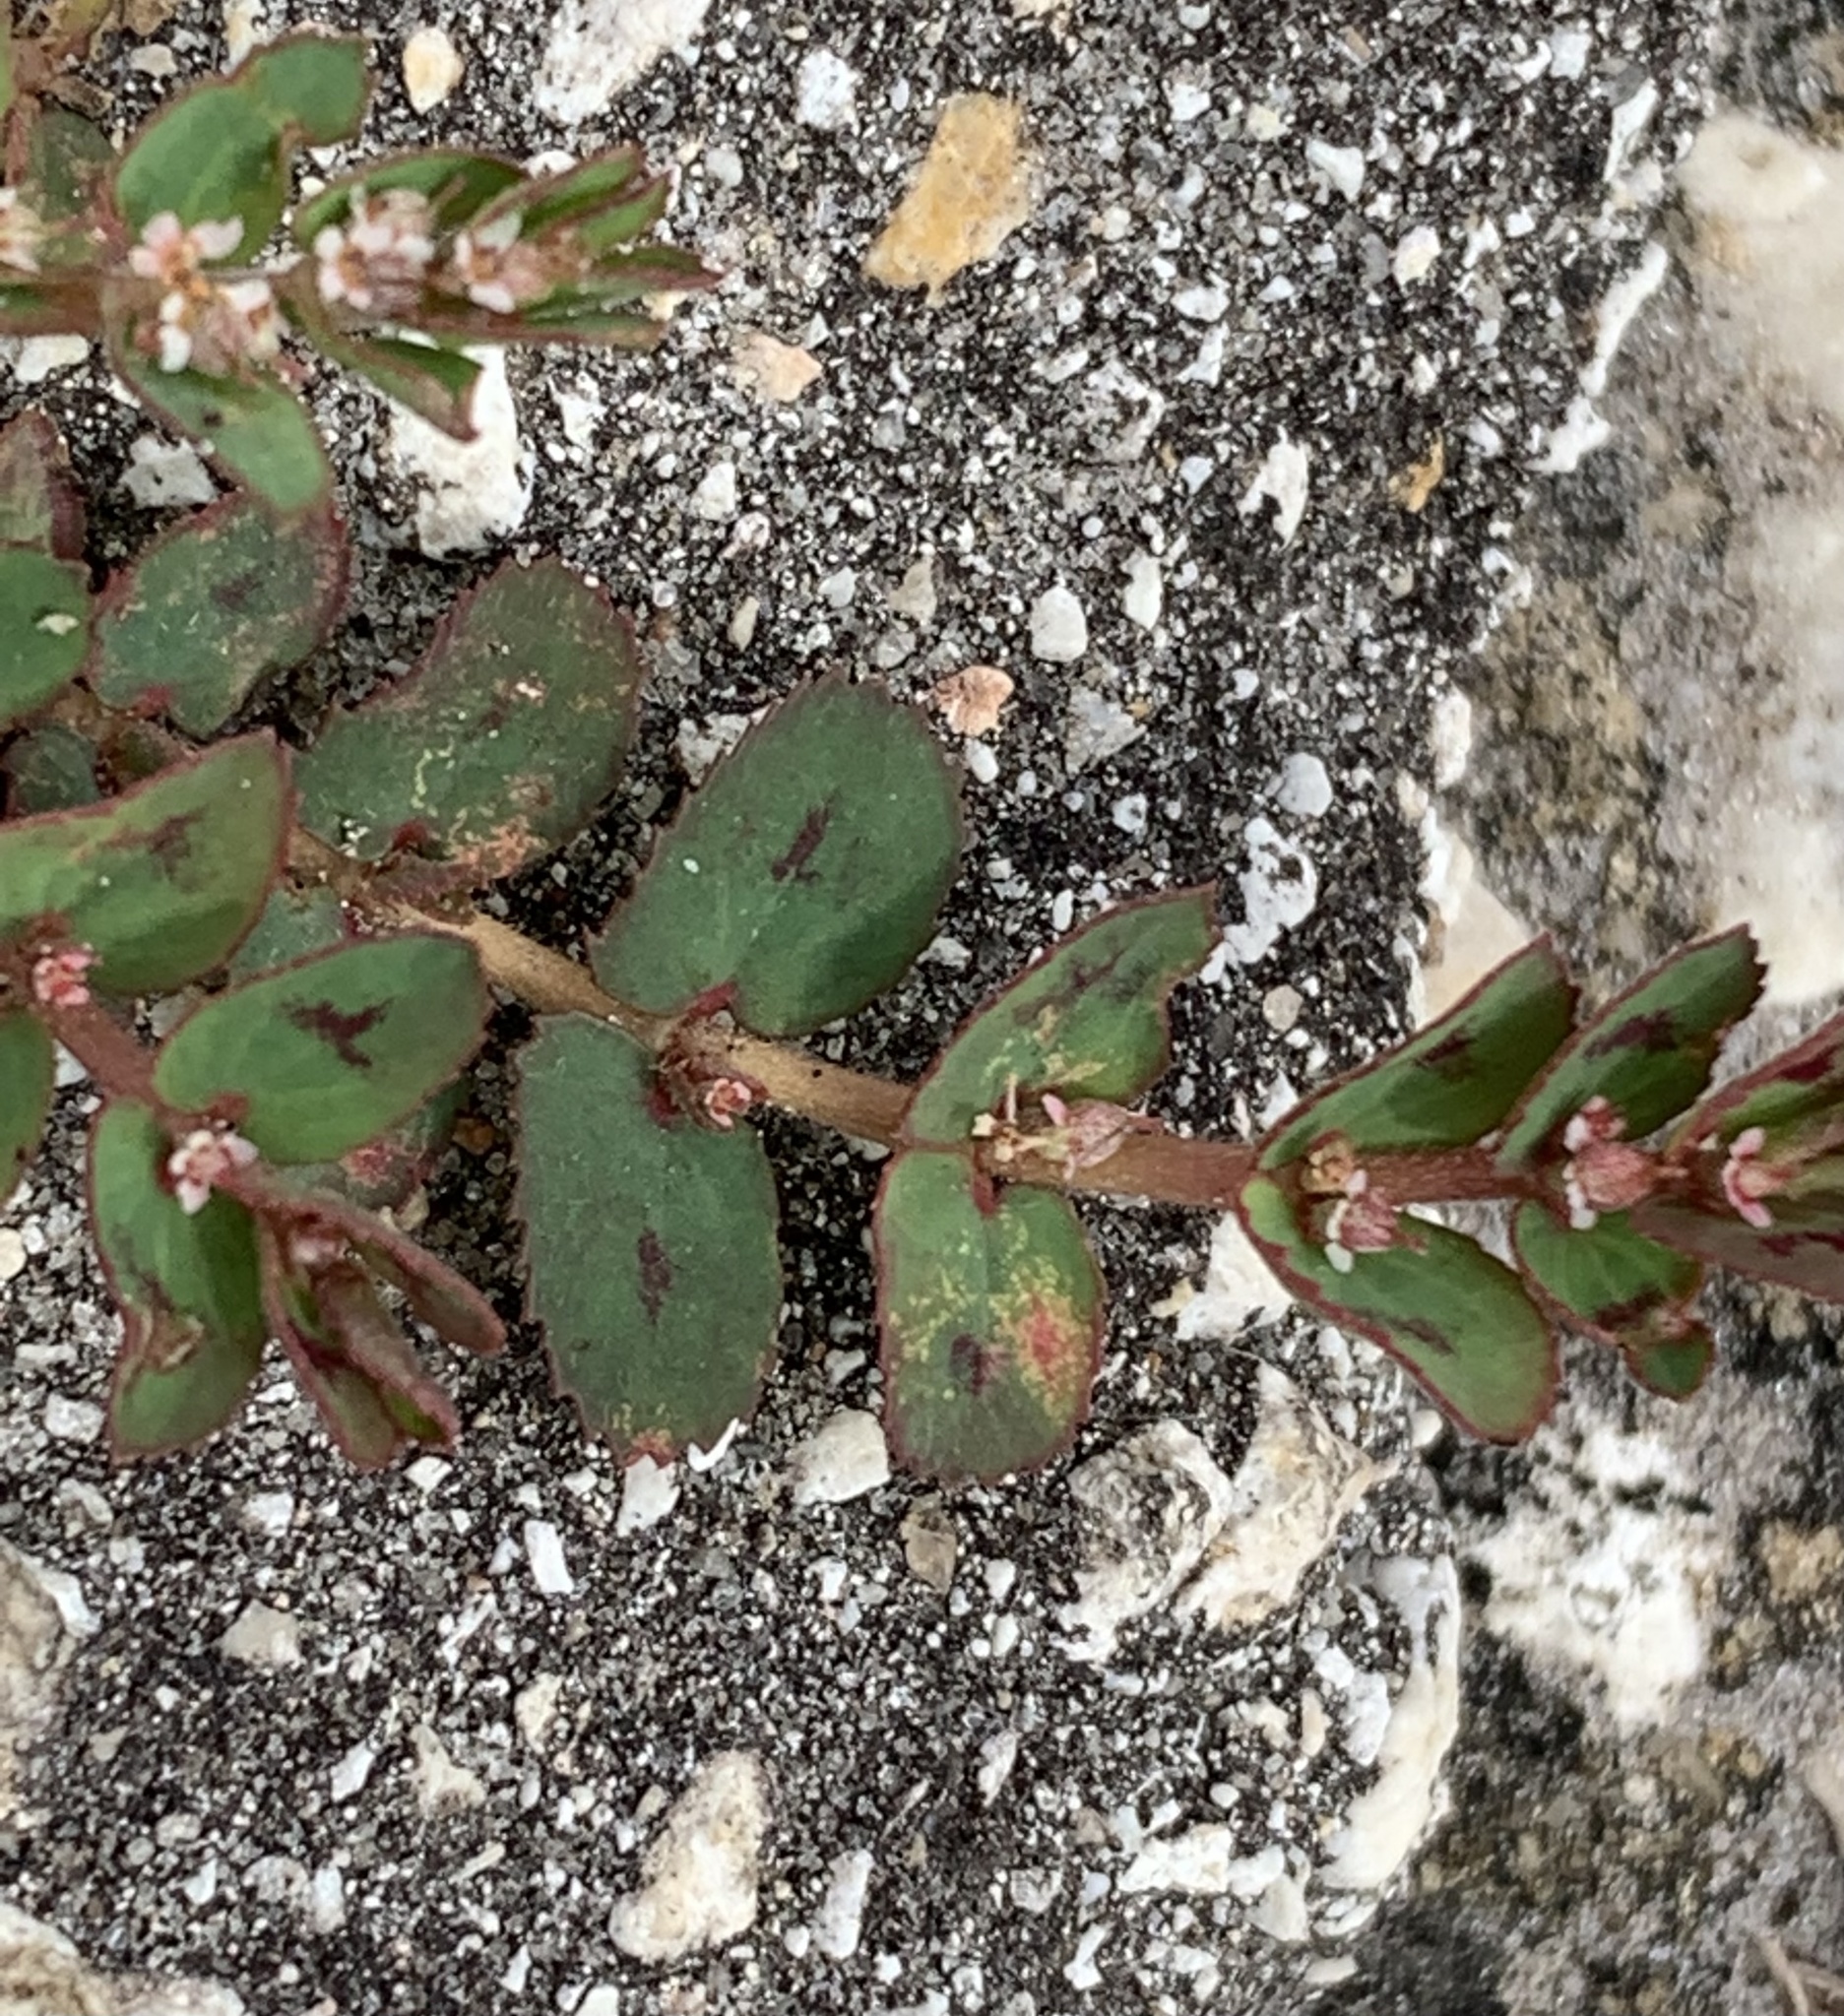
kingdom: Plantae
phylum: Tracheophyta
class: Magnoliopsida
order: Malpighiales
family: Euphorbiaceae
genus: Euphorbia
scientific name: Euphorbia thymifolia
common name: Gulf sandmat
